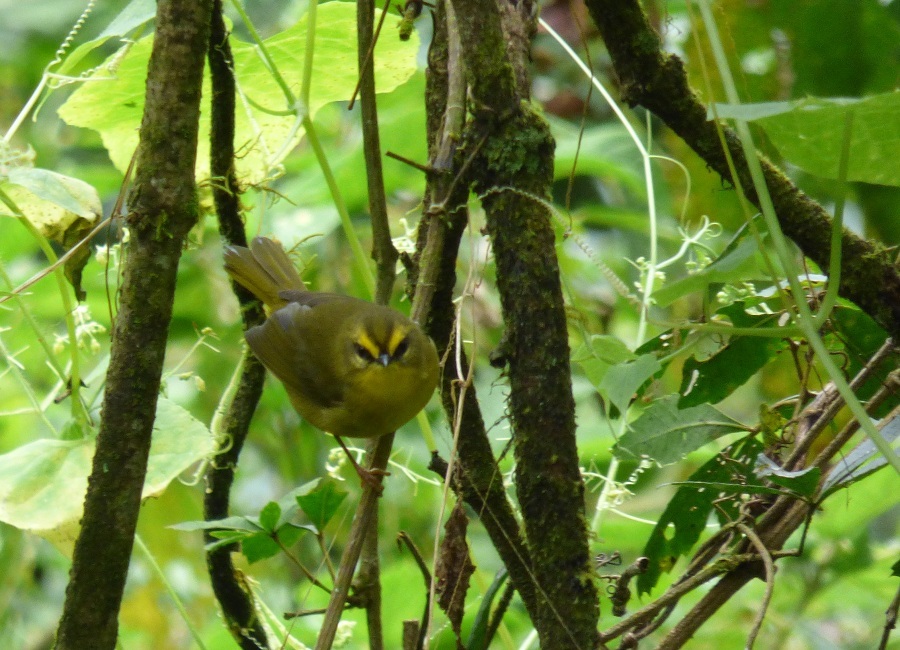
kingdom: Animalia
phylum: Chordata
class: Aves
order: Passeriformes
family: Parulidae
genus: Myiothlypis
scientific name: Myiothlypis signata
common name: Pale-legged warbler
